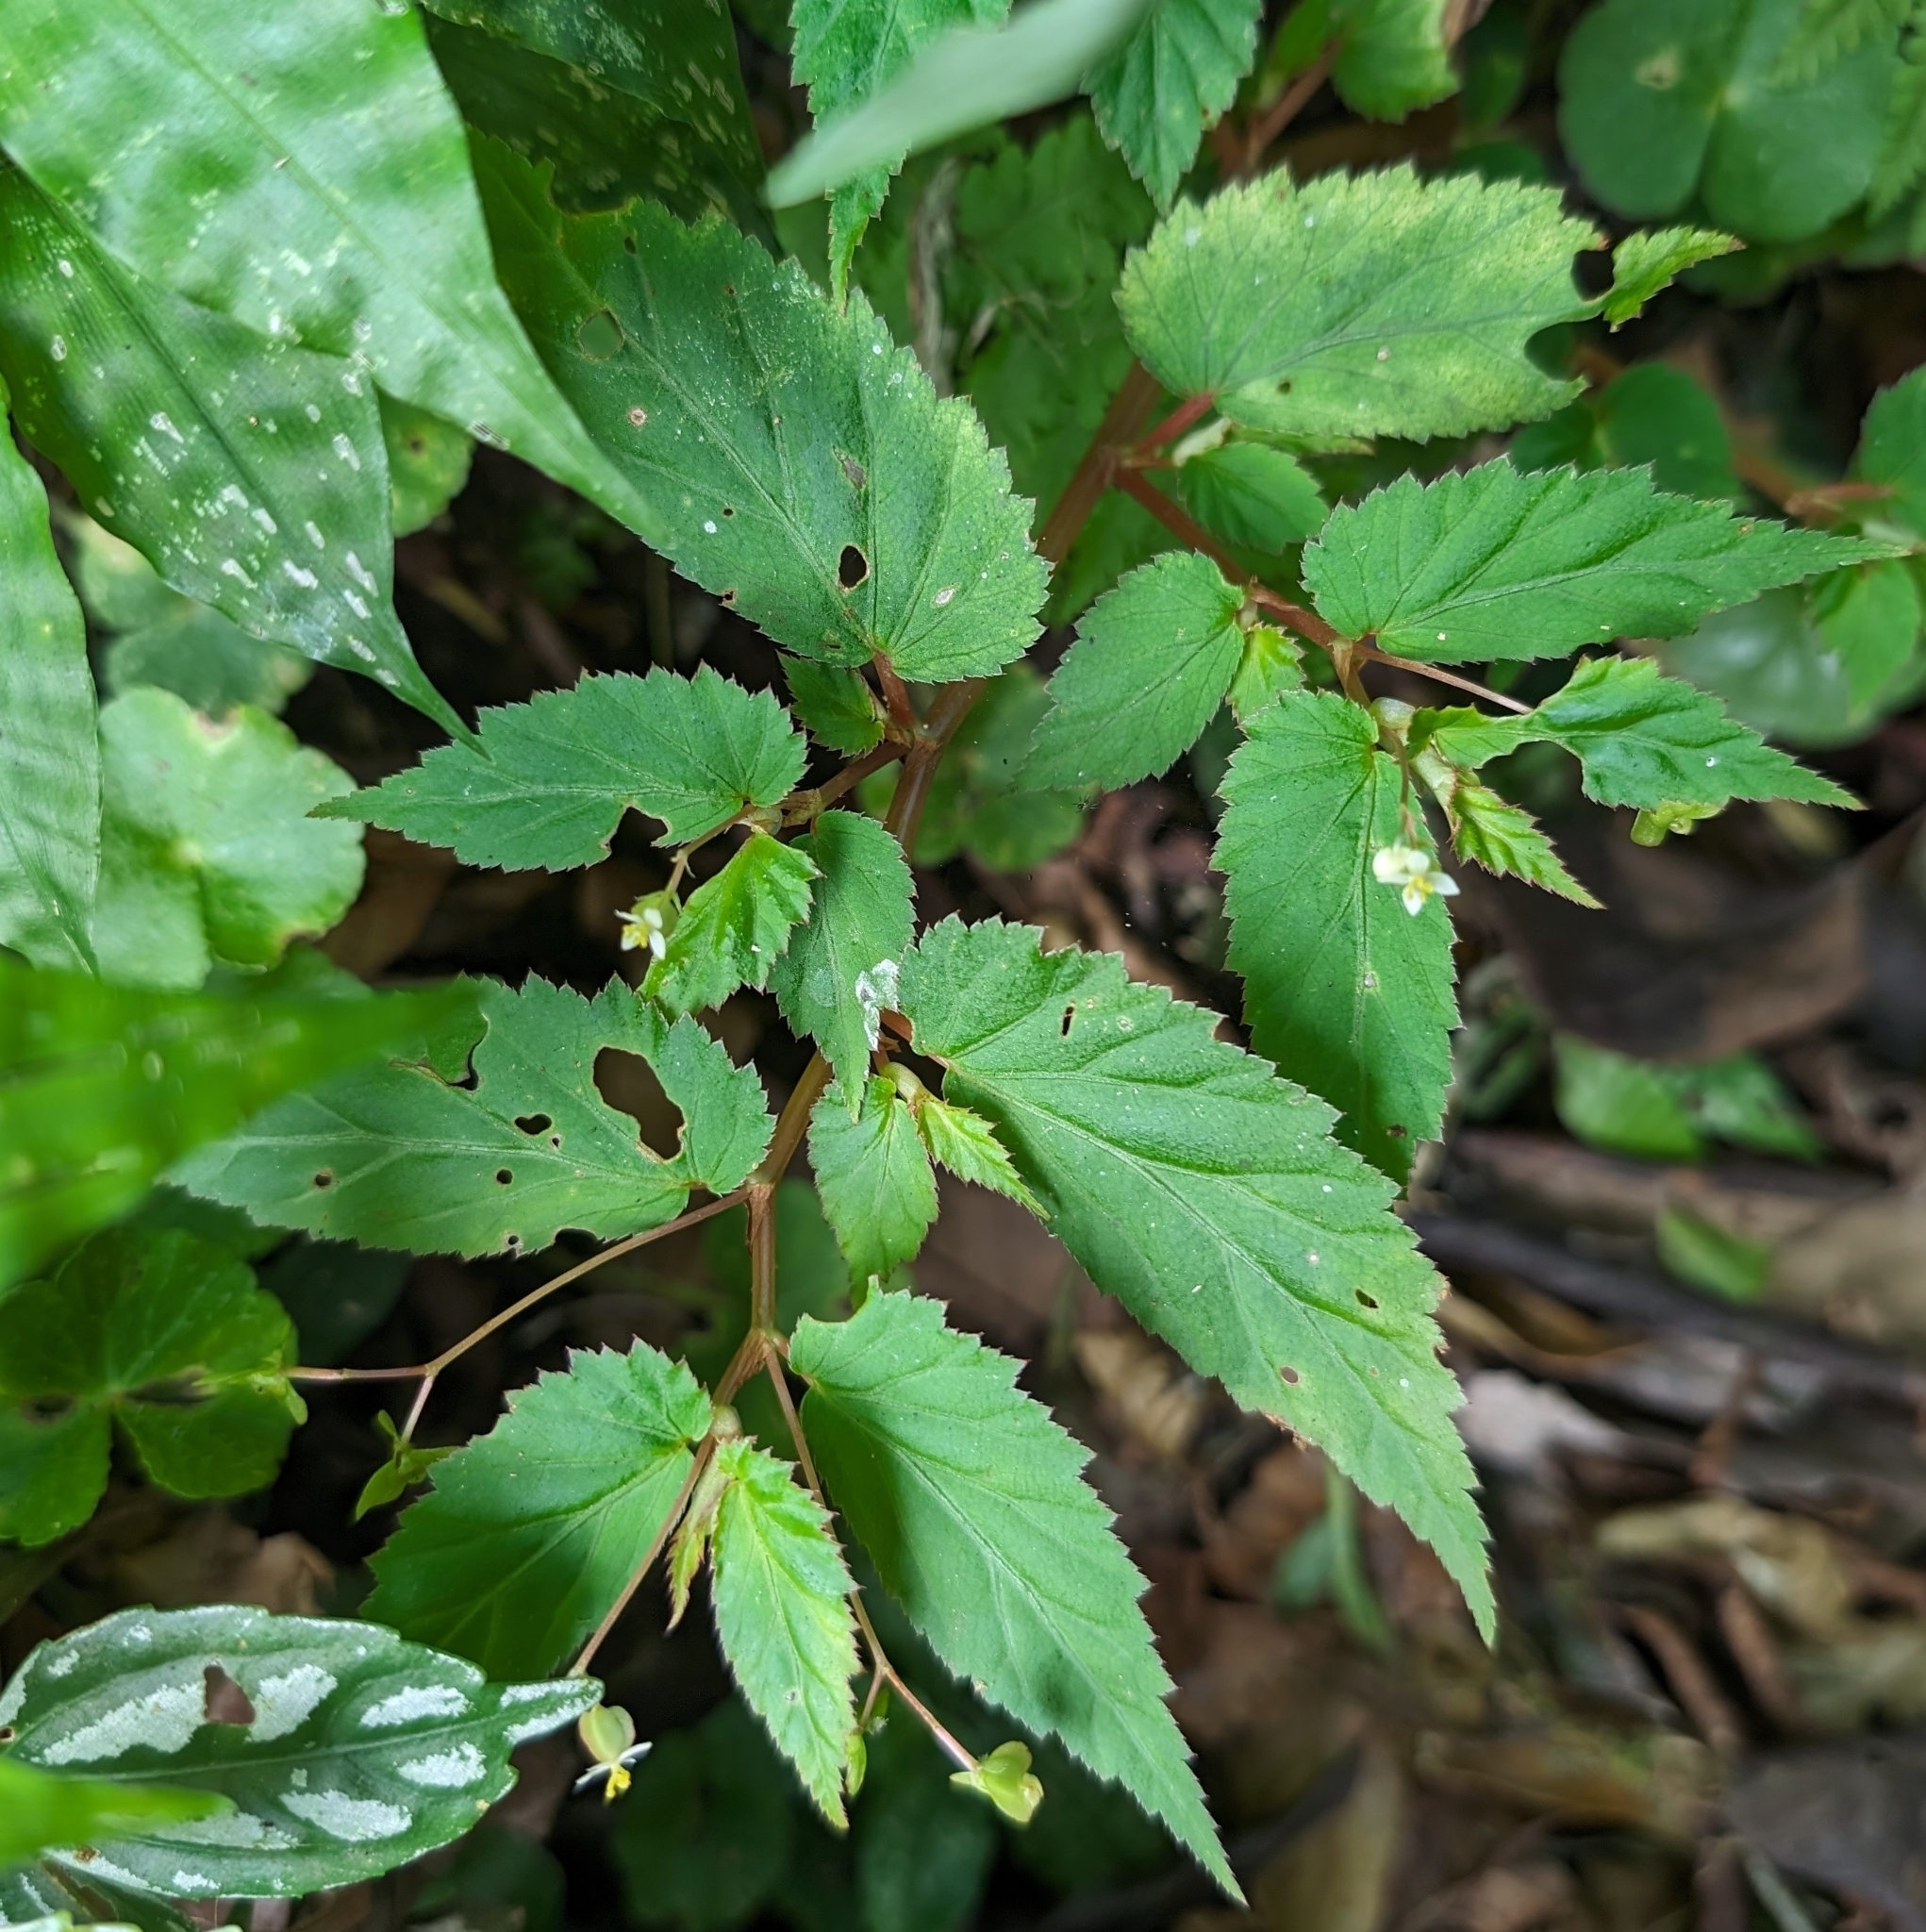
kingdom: Plantae
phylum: Tracheophyta
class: Magnoliopsida
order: Cucurbitales
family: Begoniaceae
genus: Begonia
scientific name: Begonia semiovata
